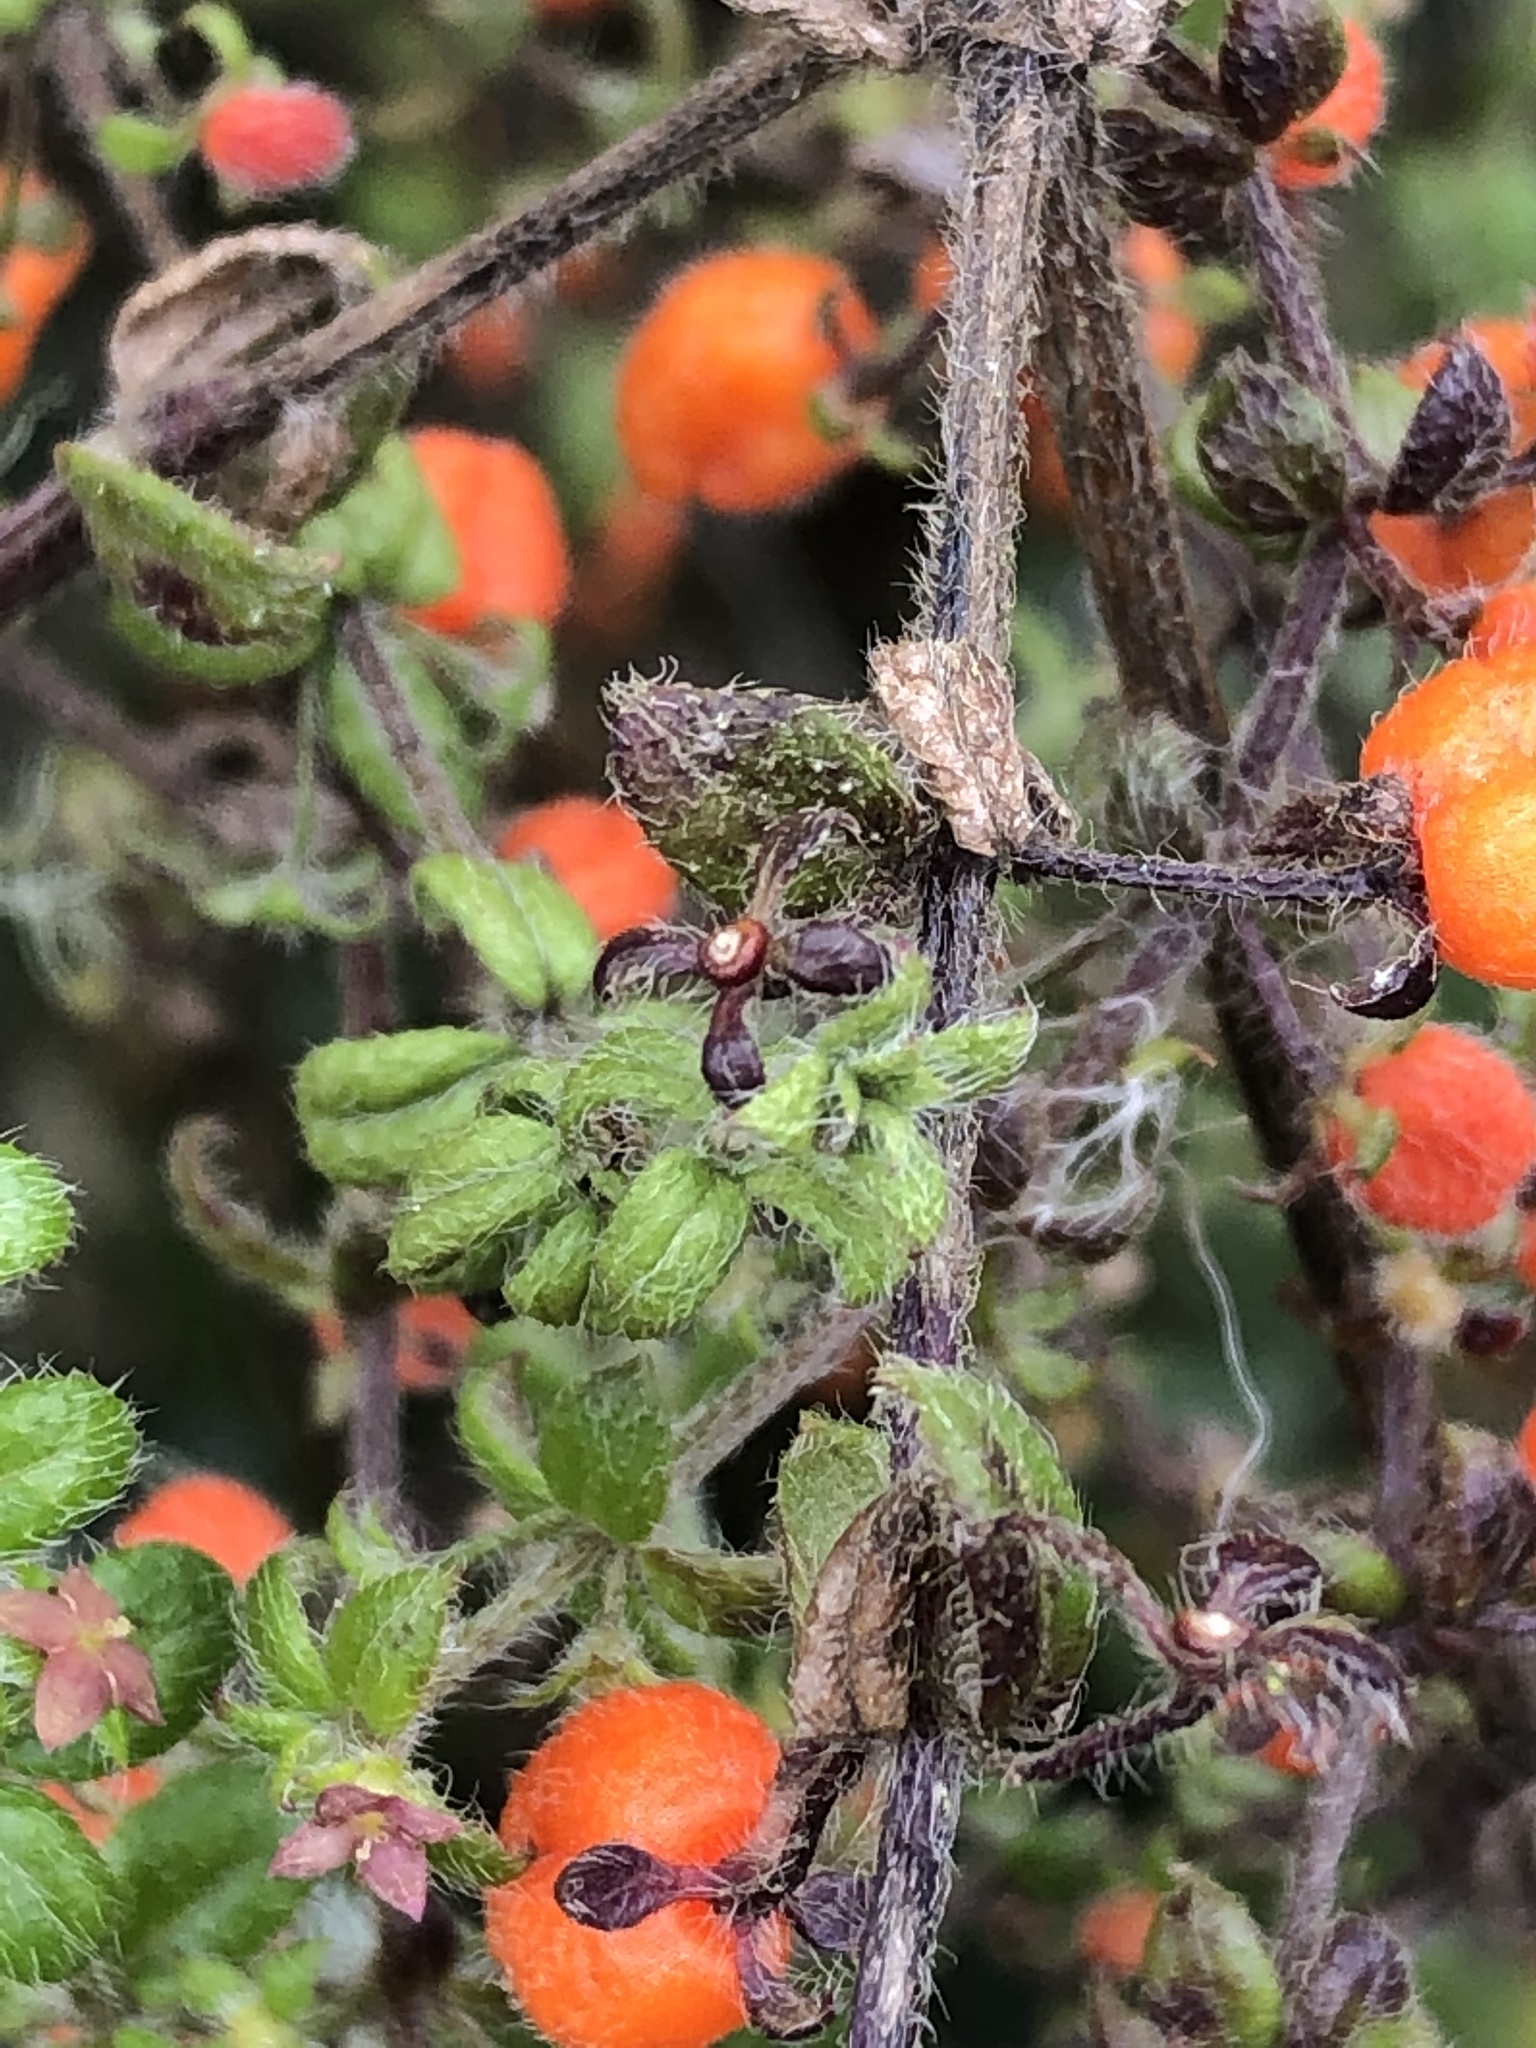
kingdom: Plantae
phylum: Tracheophyta
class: Magnoliopsida
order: Gentianales
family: Rubiaceae
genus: Galium
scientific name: Galium hypocarpium
